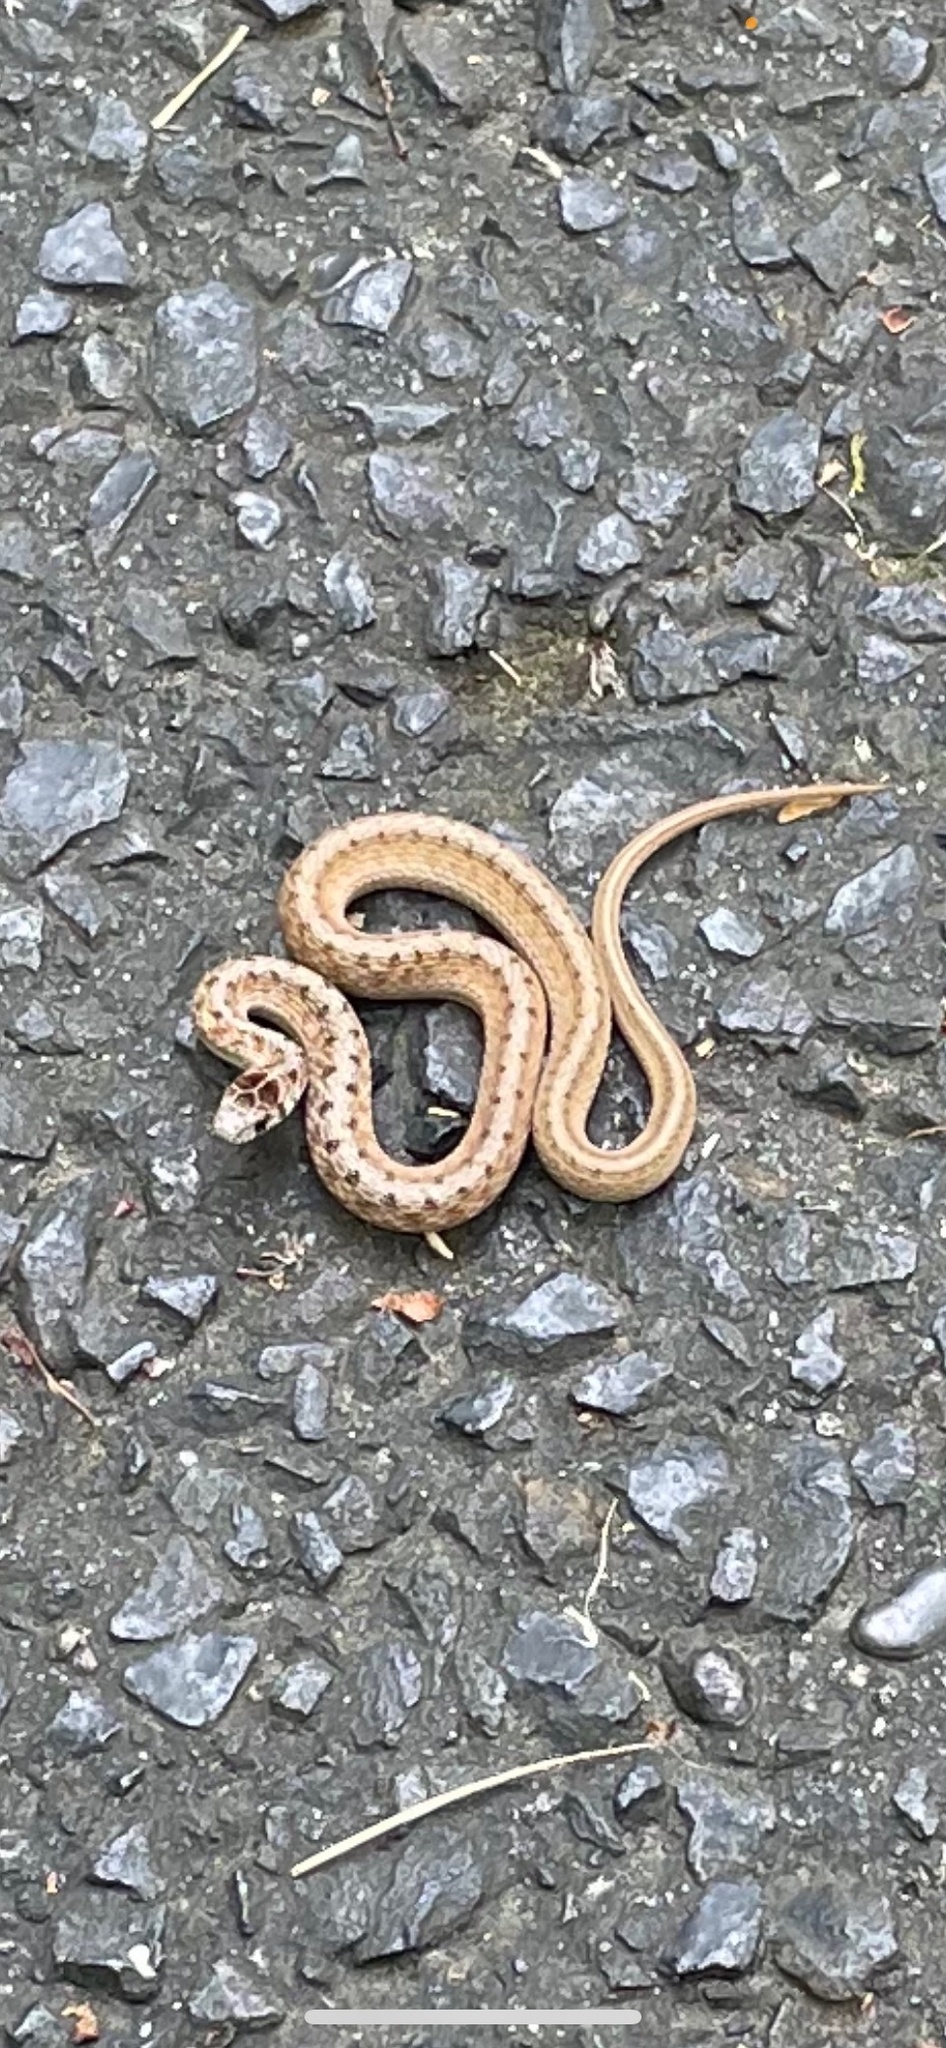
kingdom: Animalia
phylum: Chordata
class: Squamata
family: Colubridae
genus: Storeria
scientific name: Storeria dekayi
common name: (dekay’s) brown snake
